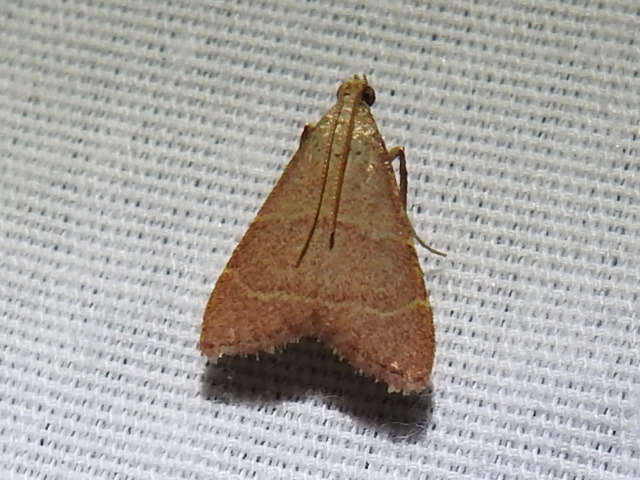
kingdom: Animalia
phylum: Arthropoda
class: Insecta
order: Lepidoptera
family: Pyralidae
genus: Caphys
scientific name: Caphys arizonensis
